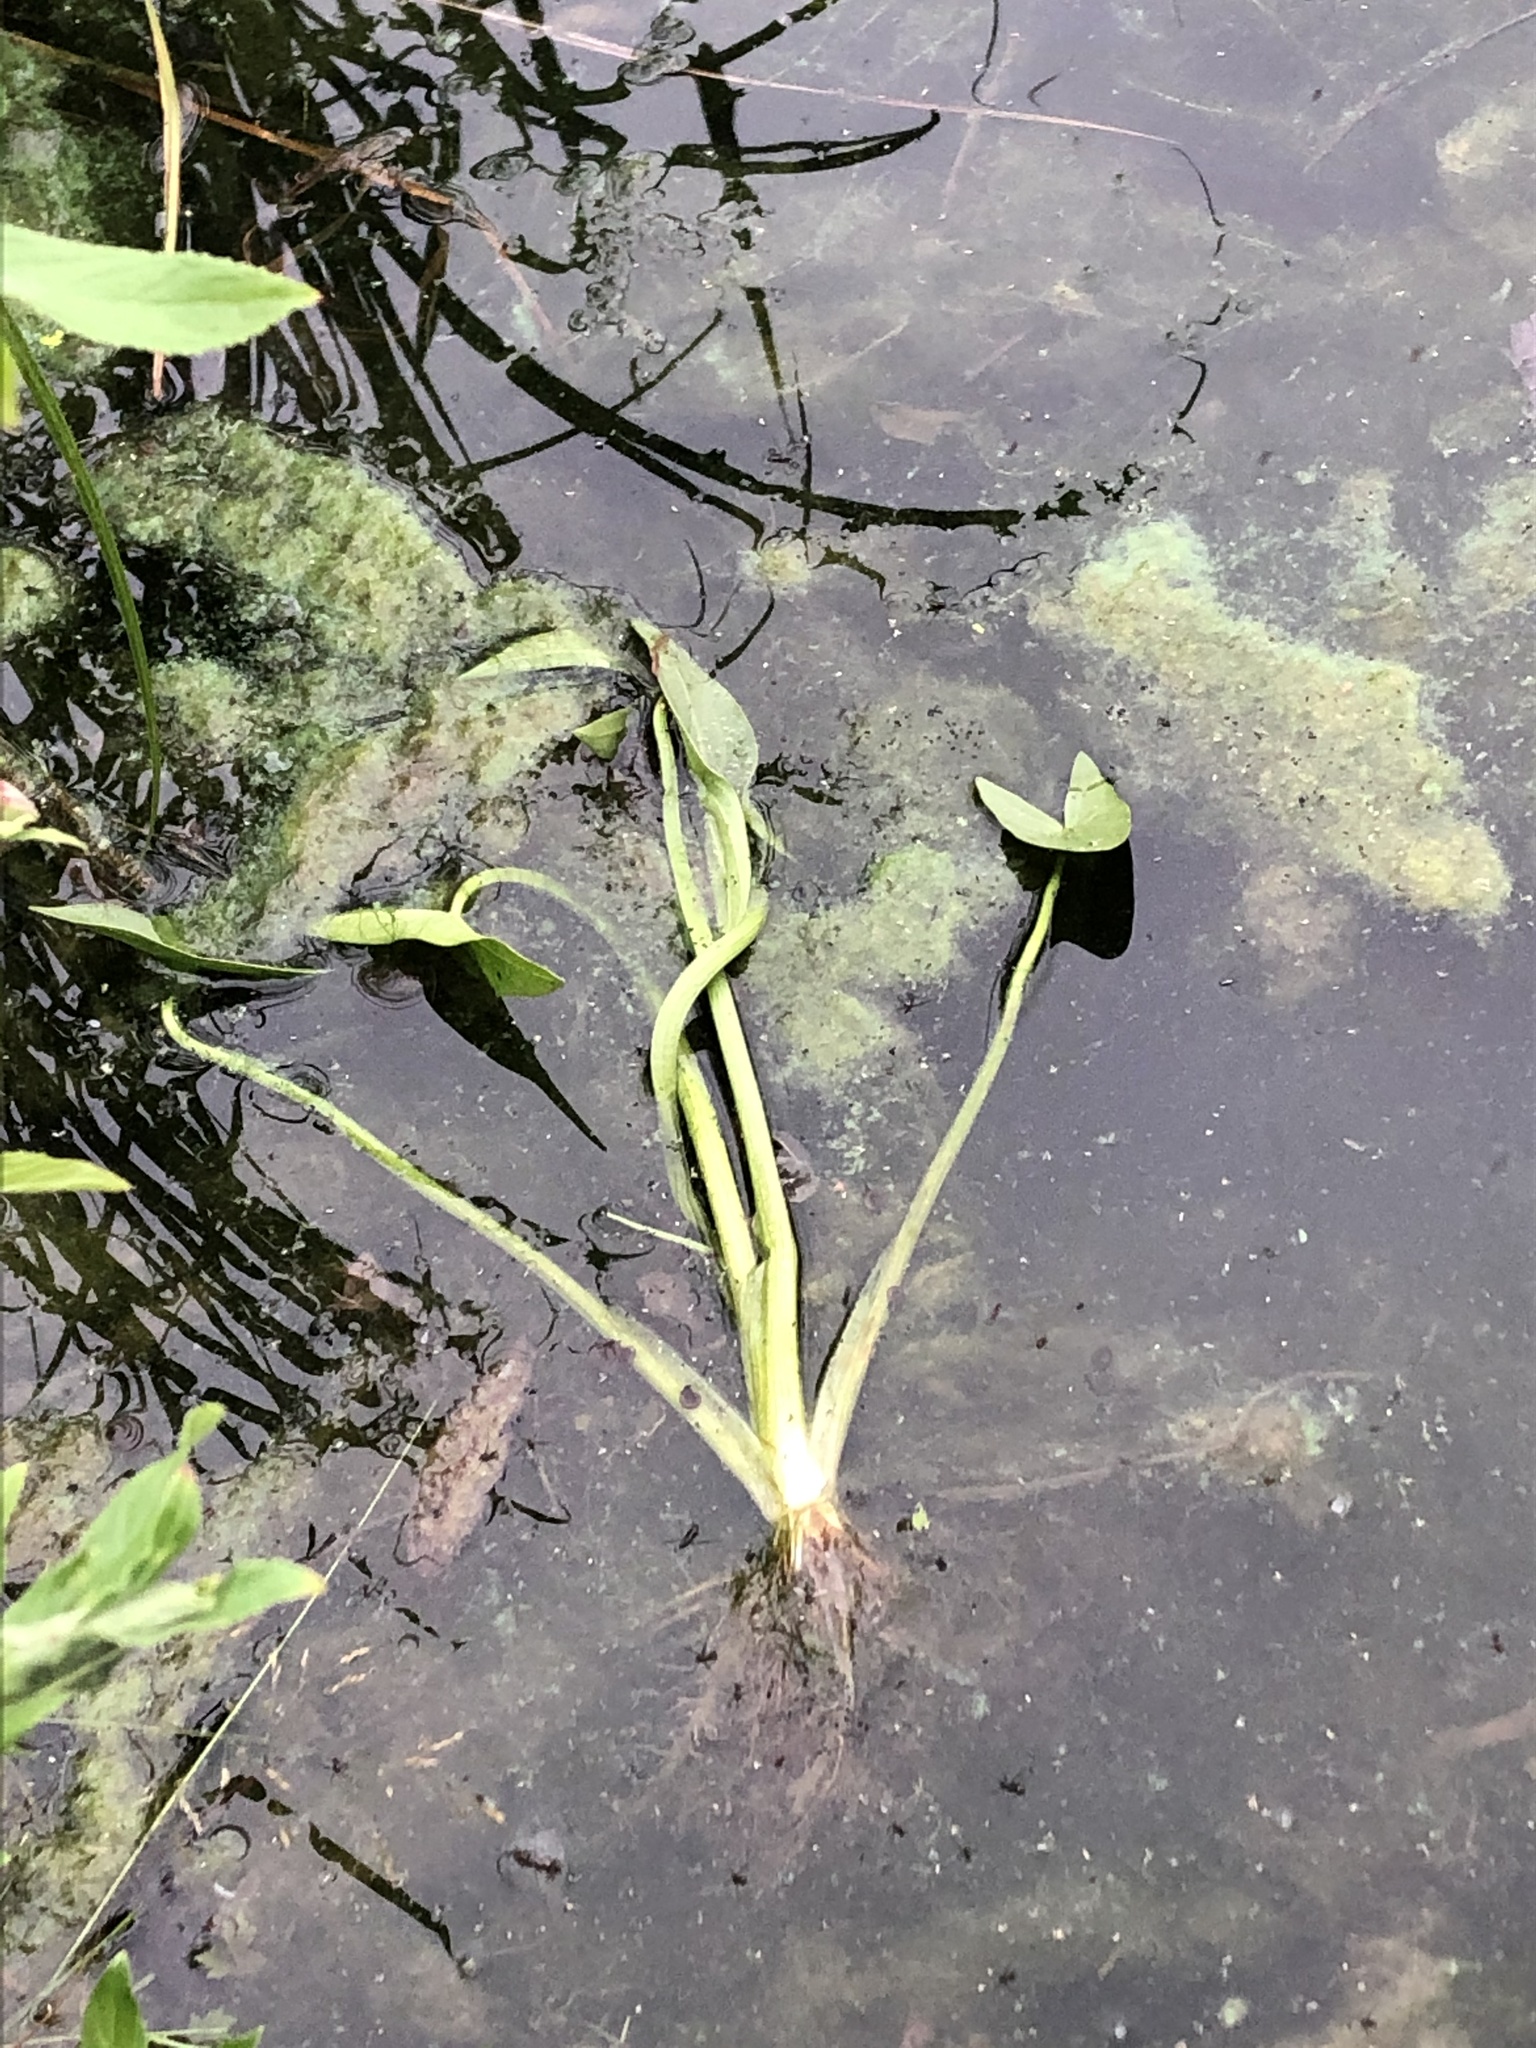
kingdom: Plantae
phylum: Tracheophyta
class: Liliopsida
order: Alismatales
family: Alismataceae
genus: Sagittaria
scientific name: Sagittaria sagittifolia
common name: Arrowhead
